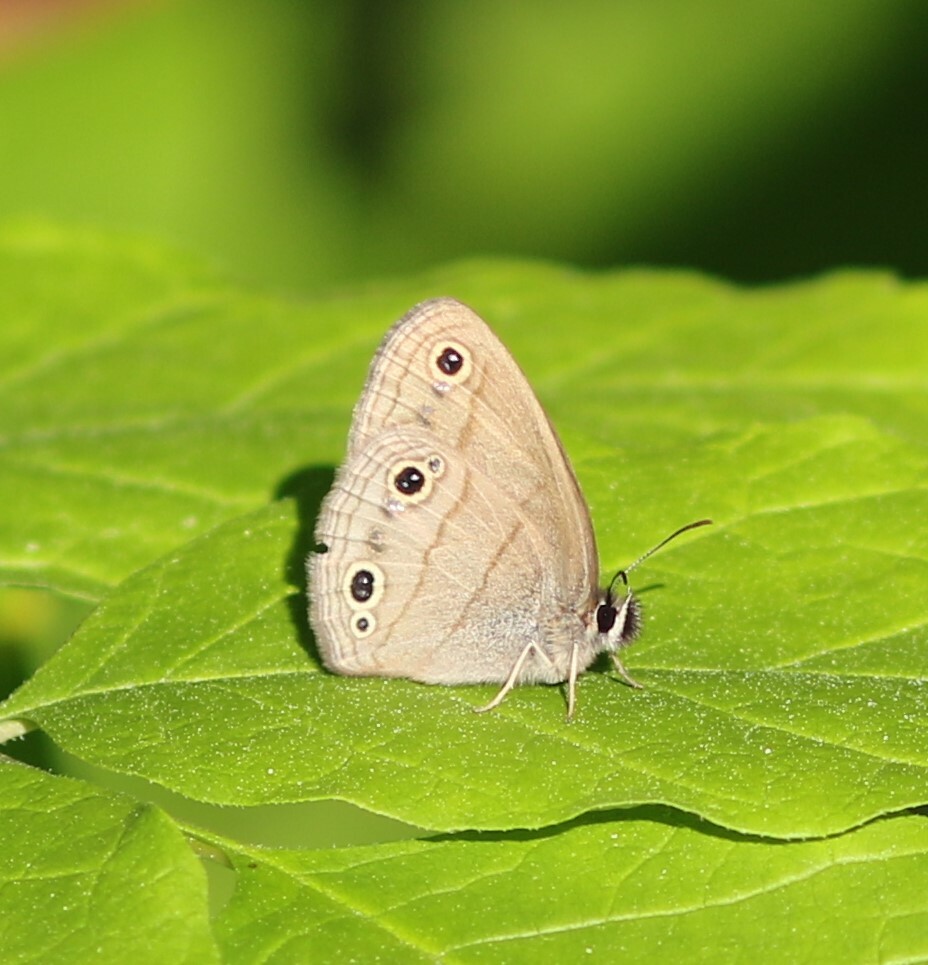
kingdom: Animalia
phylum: Arthropoda
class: Insecta
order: Lepidoptera
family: Nymphalidae
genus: Euptychia
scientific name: Euptychia cymela
